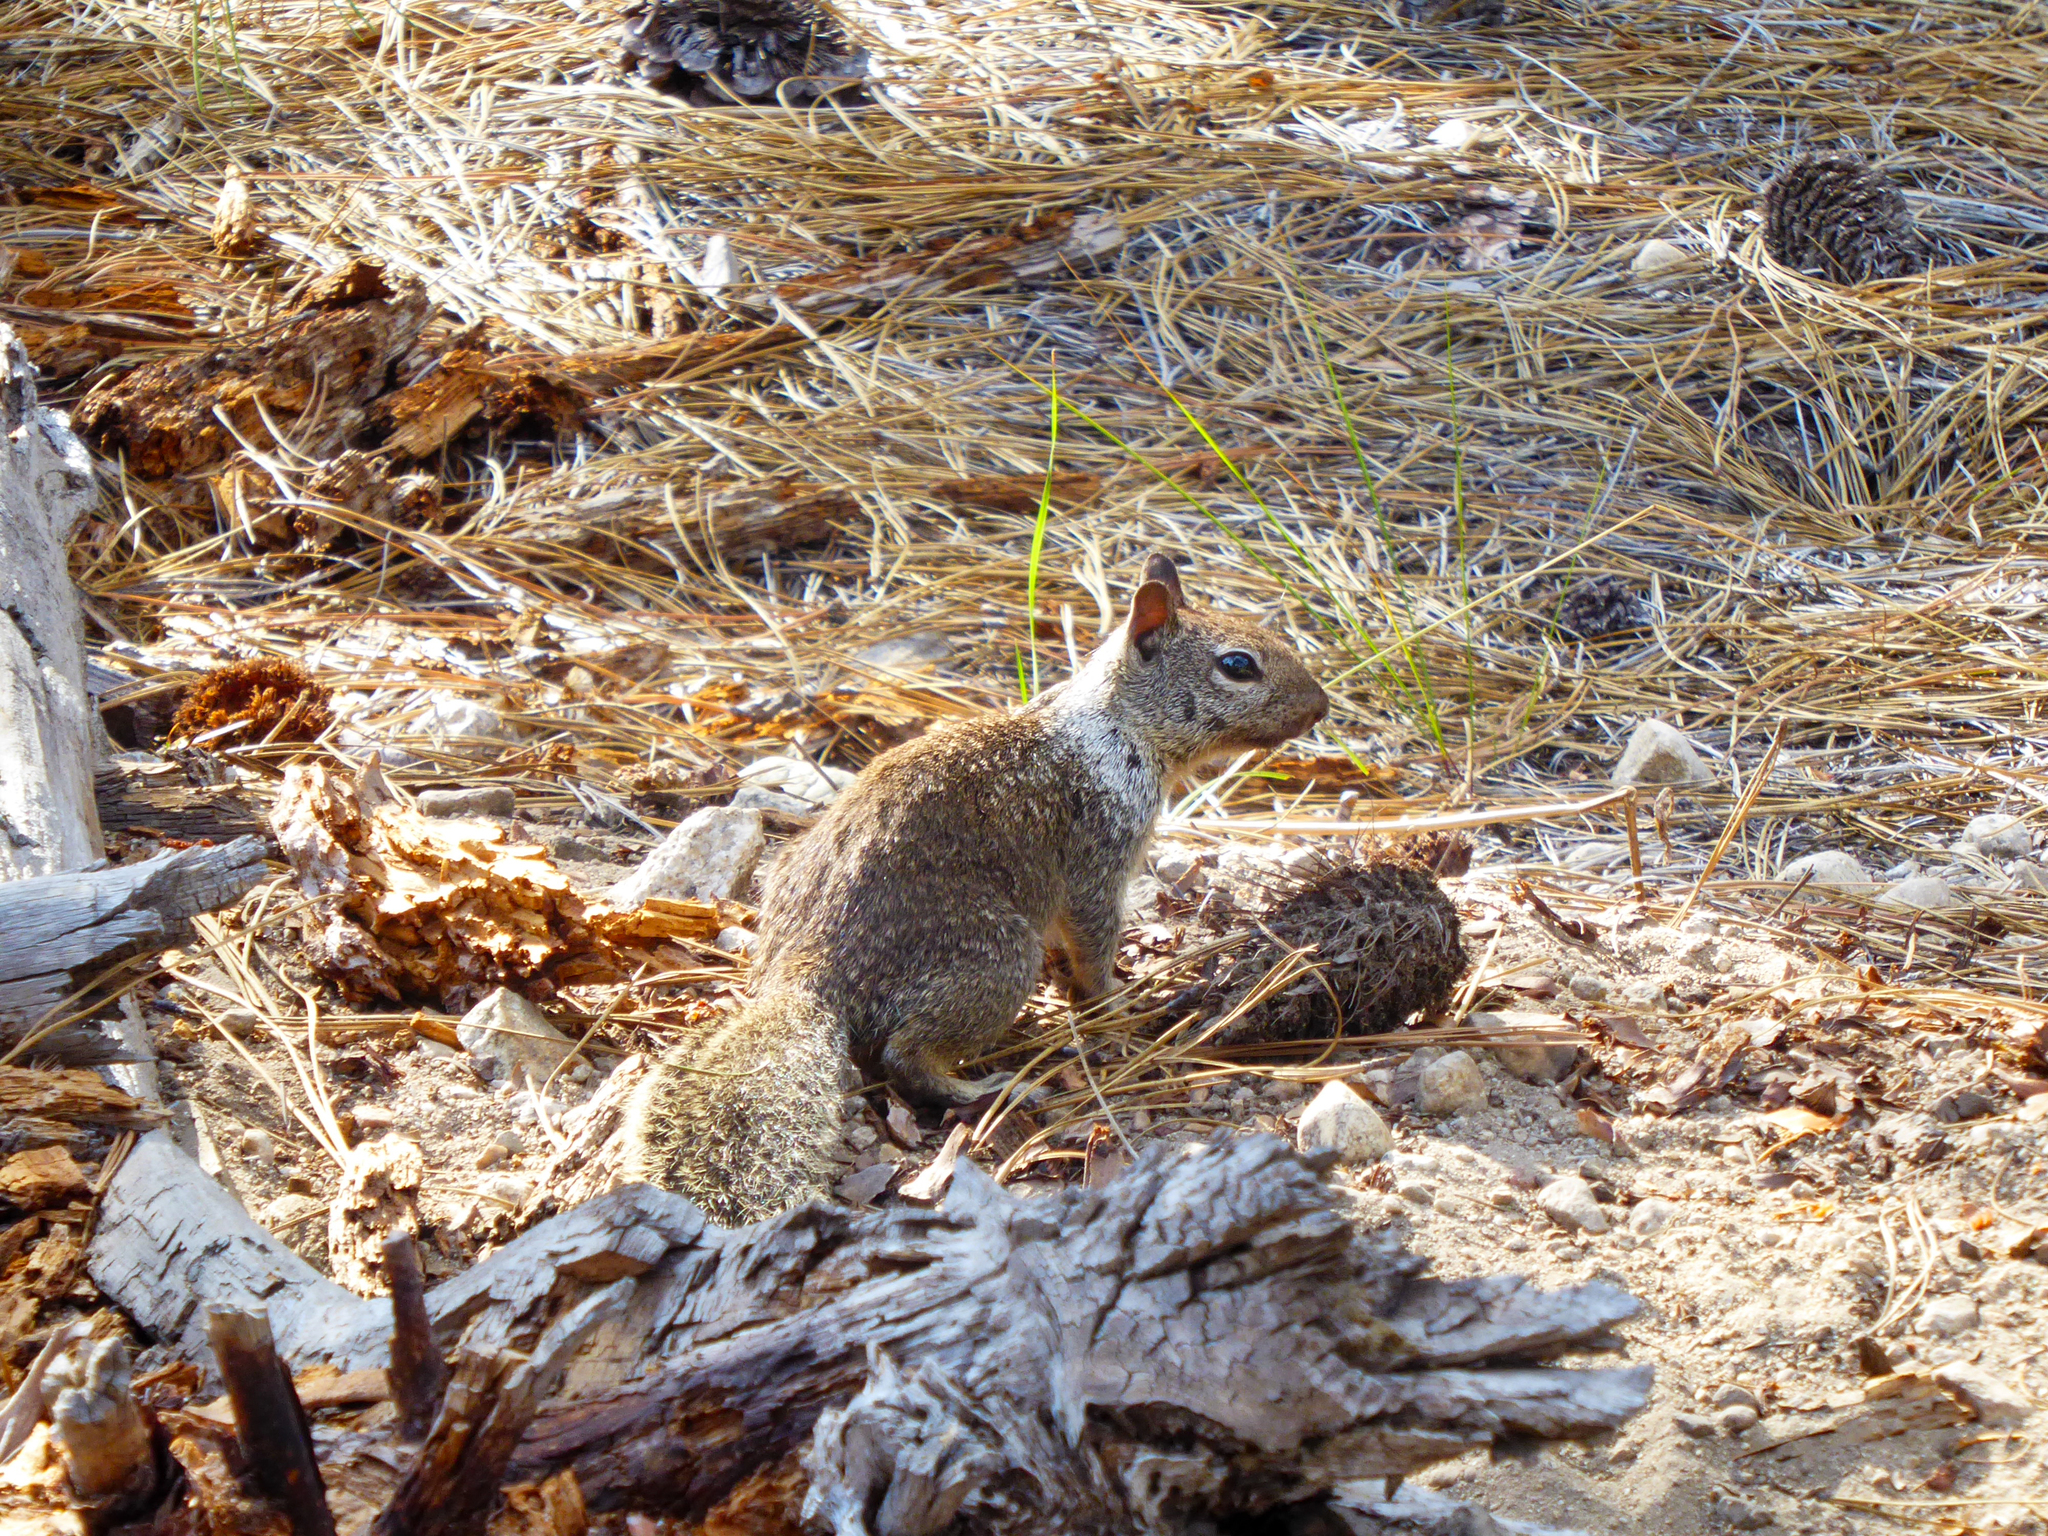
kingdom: Animalia
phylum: Chordata
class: Mammalia
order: Rodentia
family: Sciuridae
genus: Otospermophilus
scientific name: Otospermophilus beecheyi
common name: California ground squirrel
